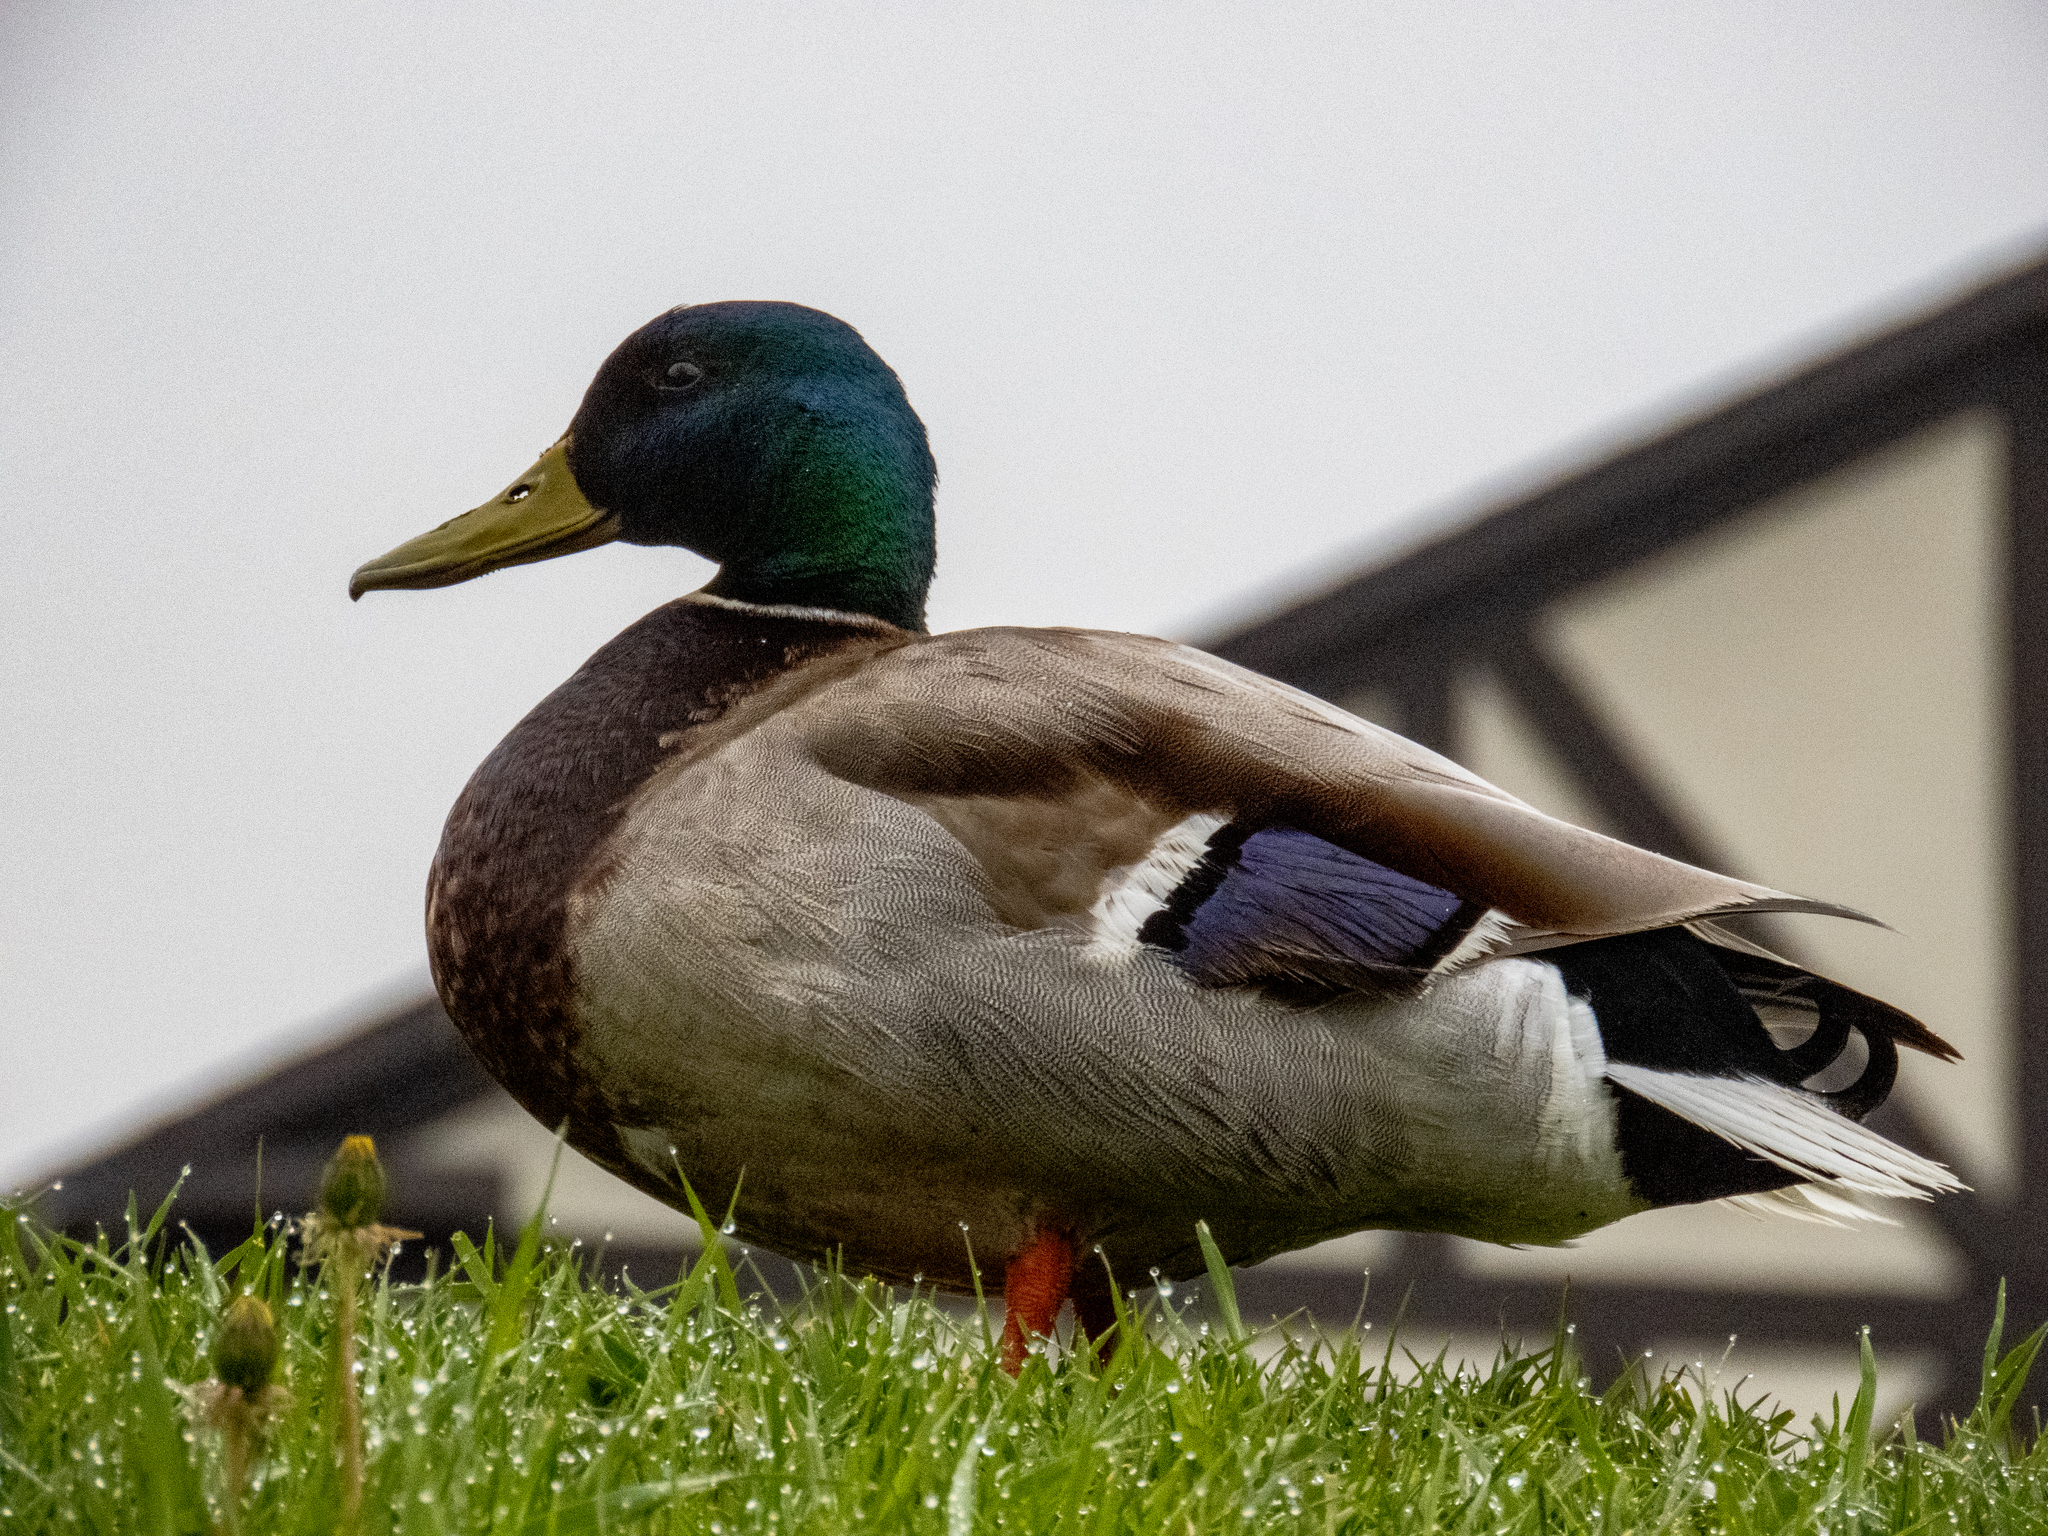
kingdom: Animalia
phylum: Chordata
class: Aves
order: Anseriformes
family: Anatidae
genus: Anas
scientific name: Anas platyrhynchos
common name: Mallard
